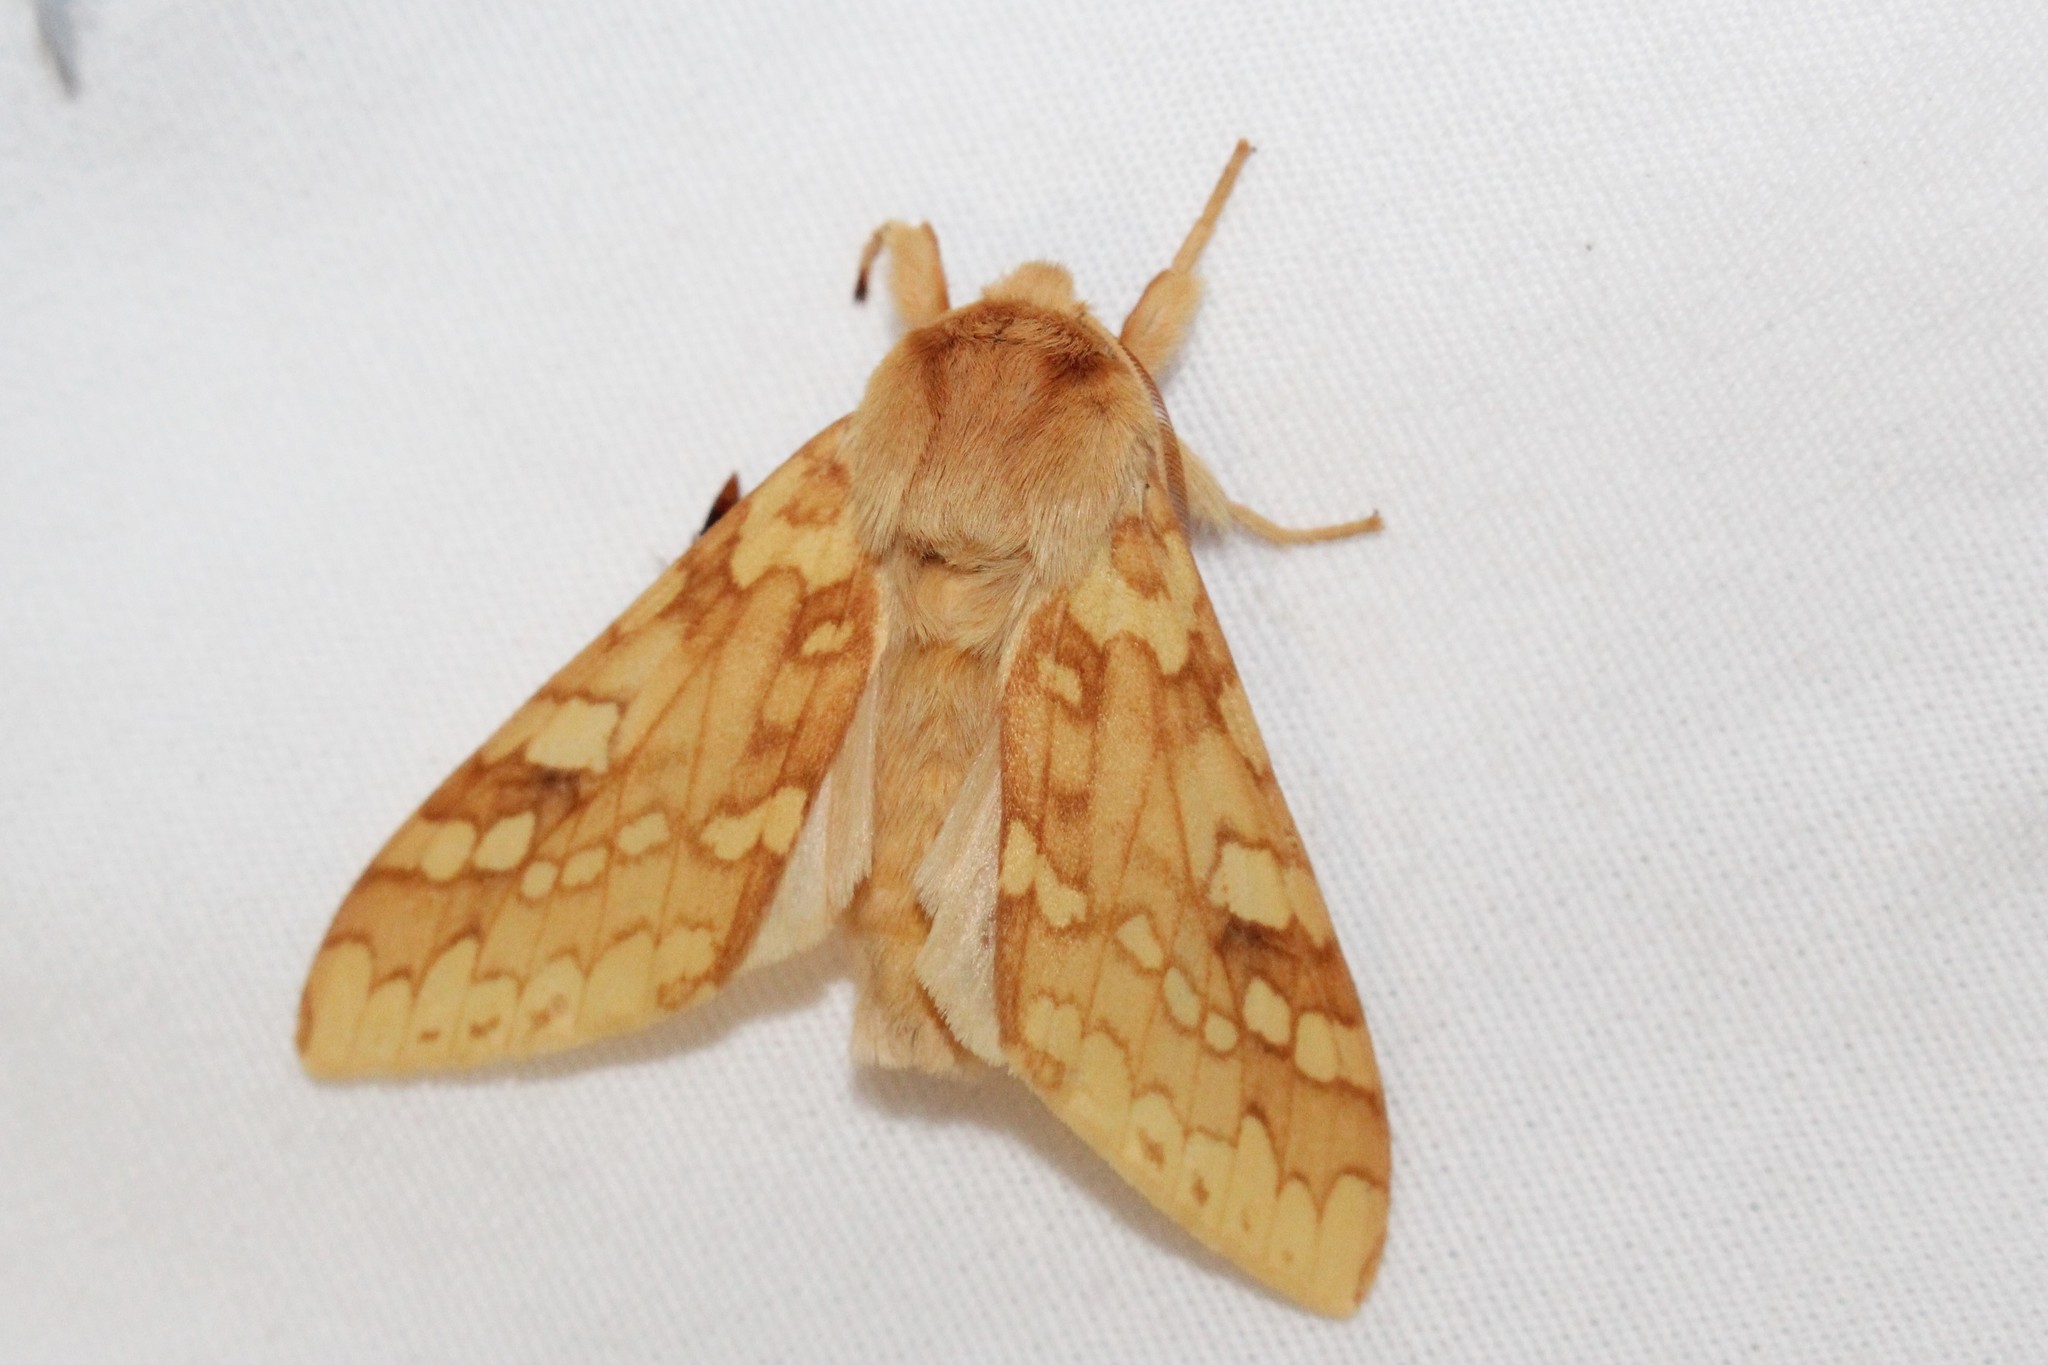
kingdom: Animalia
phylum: Arthropoda
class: Insecta
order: Lepidoptera
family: Erebidae
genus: Lophocampa
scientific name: Lophocampa maculata
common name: Spotted tussock moth
